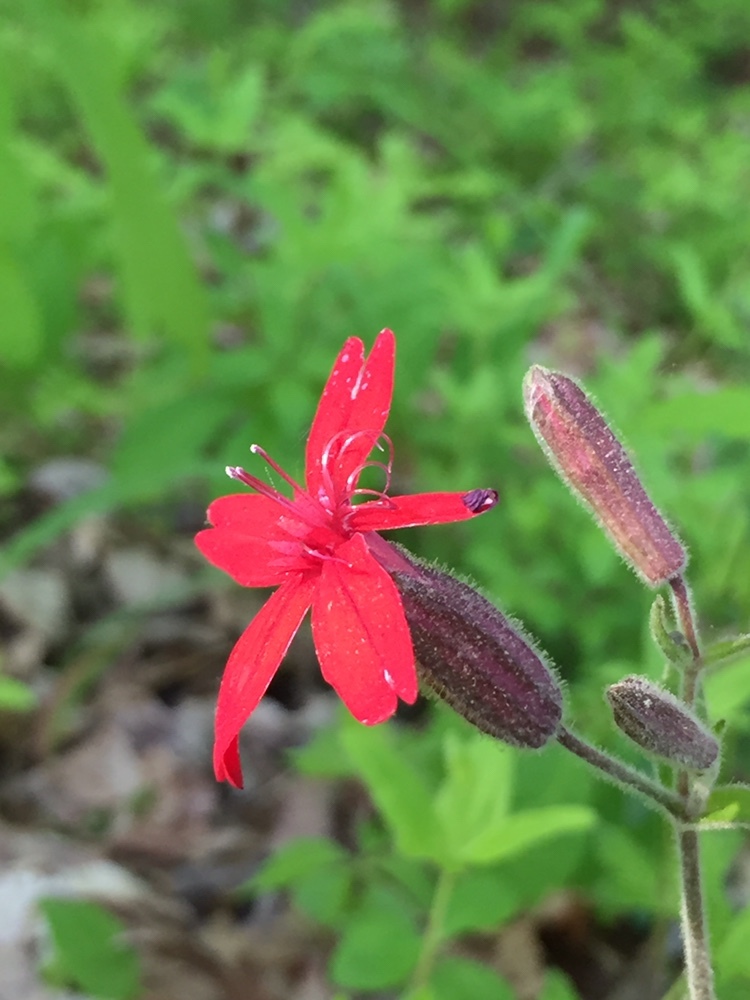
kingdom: Plantae
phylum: Tracheophyta
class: Magnoliopsida
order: Caryophyllales
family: Caryophyllaceae
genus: Silene
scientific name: Silene virginica
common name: Fire-pink
